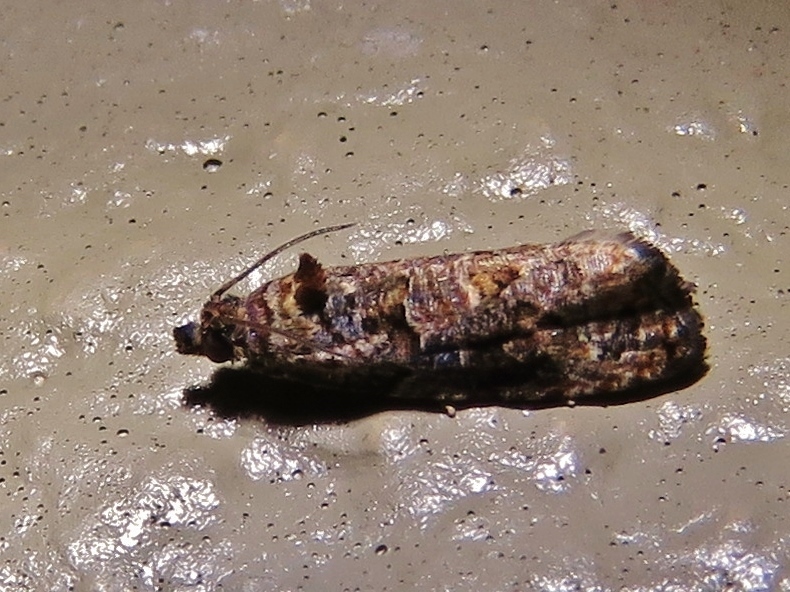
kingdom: Animalia
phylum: Arthropoda
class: Insecta
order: Lepidoptera
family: Tortricidae
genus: Endothenia
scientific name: Endothenia hebesana
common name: Verbena bud moth
